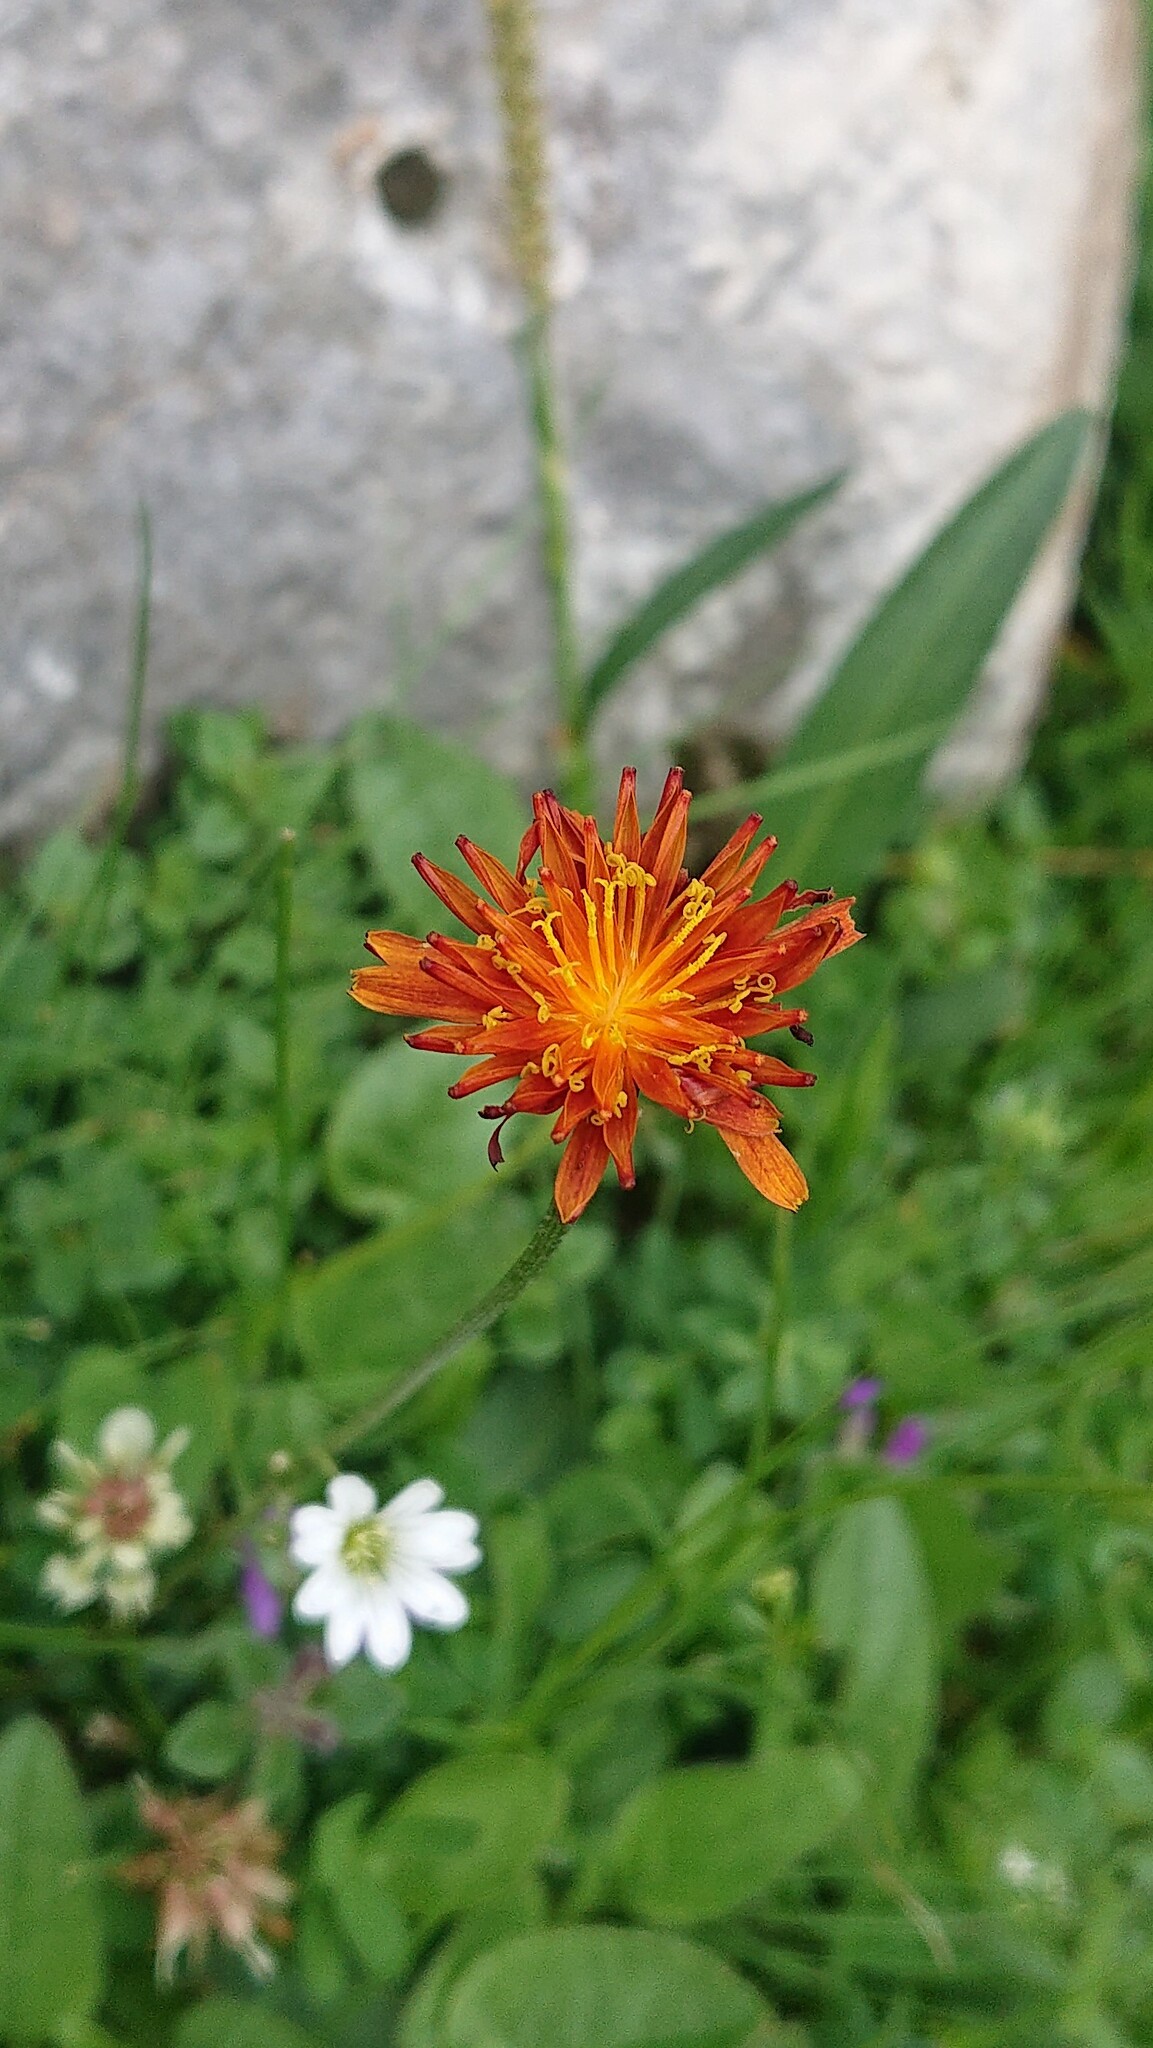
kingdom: Plantae
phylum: Tracheophyta
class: Magnoliopsida
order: Asterales
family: Asteraceae
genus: Crepis
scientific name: Crepis aurea
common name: Golden hawk's-beard
